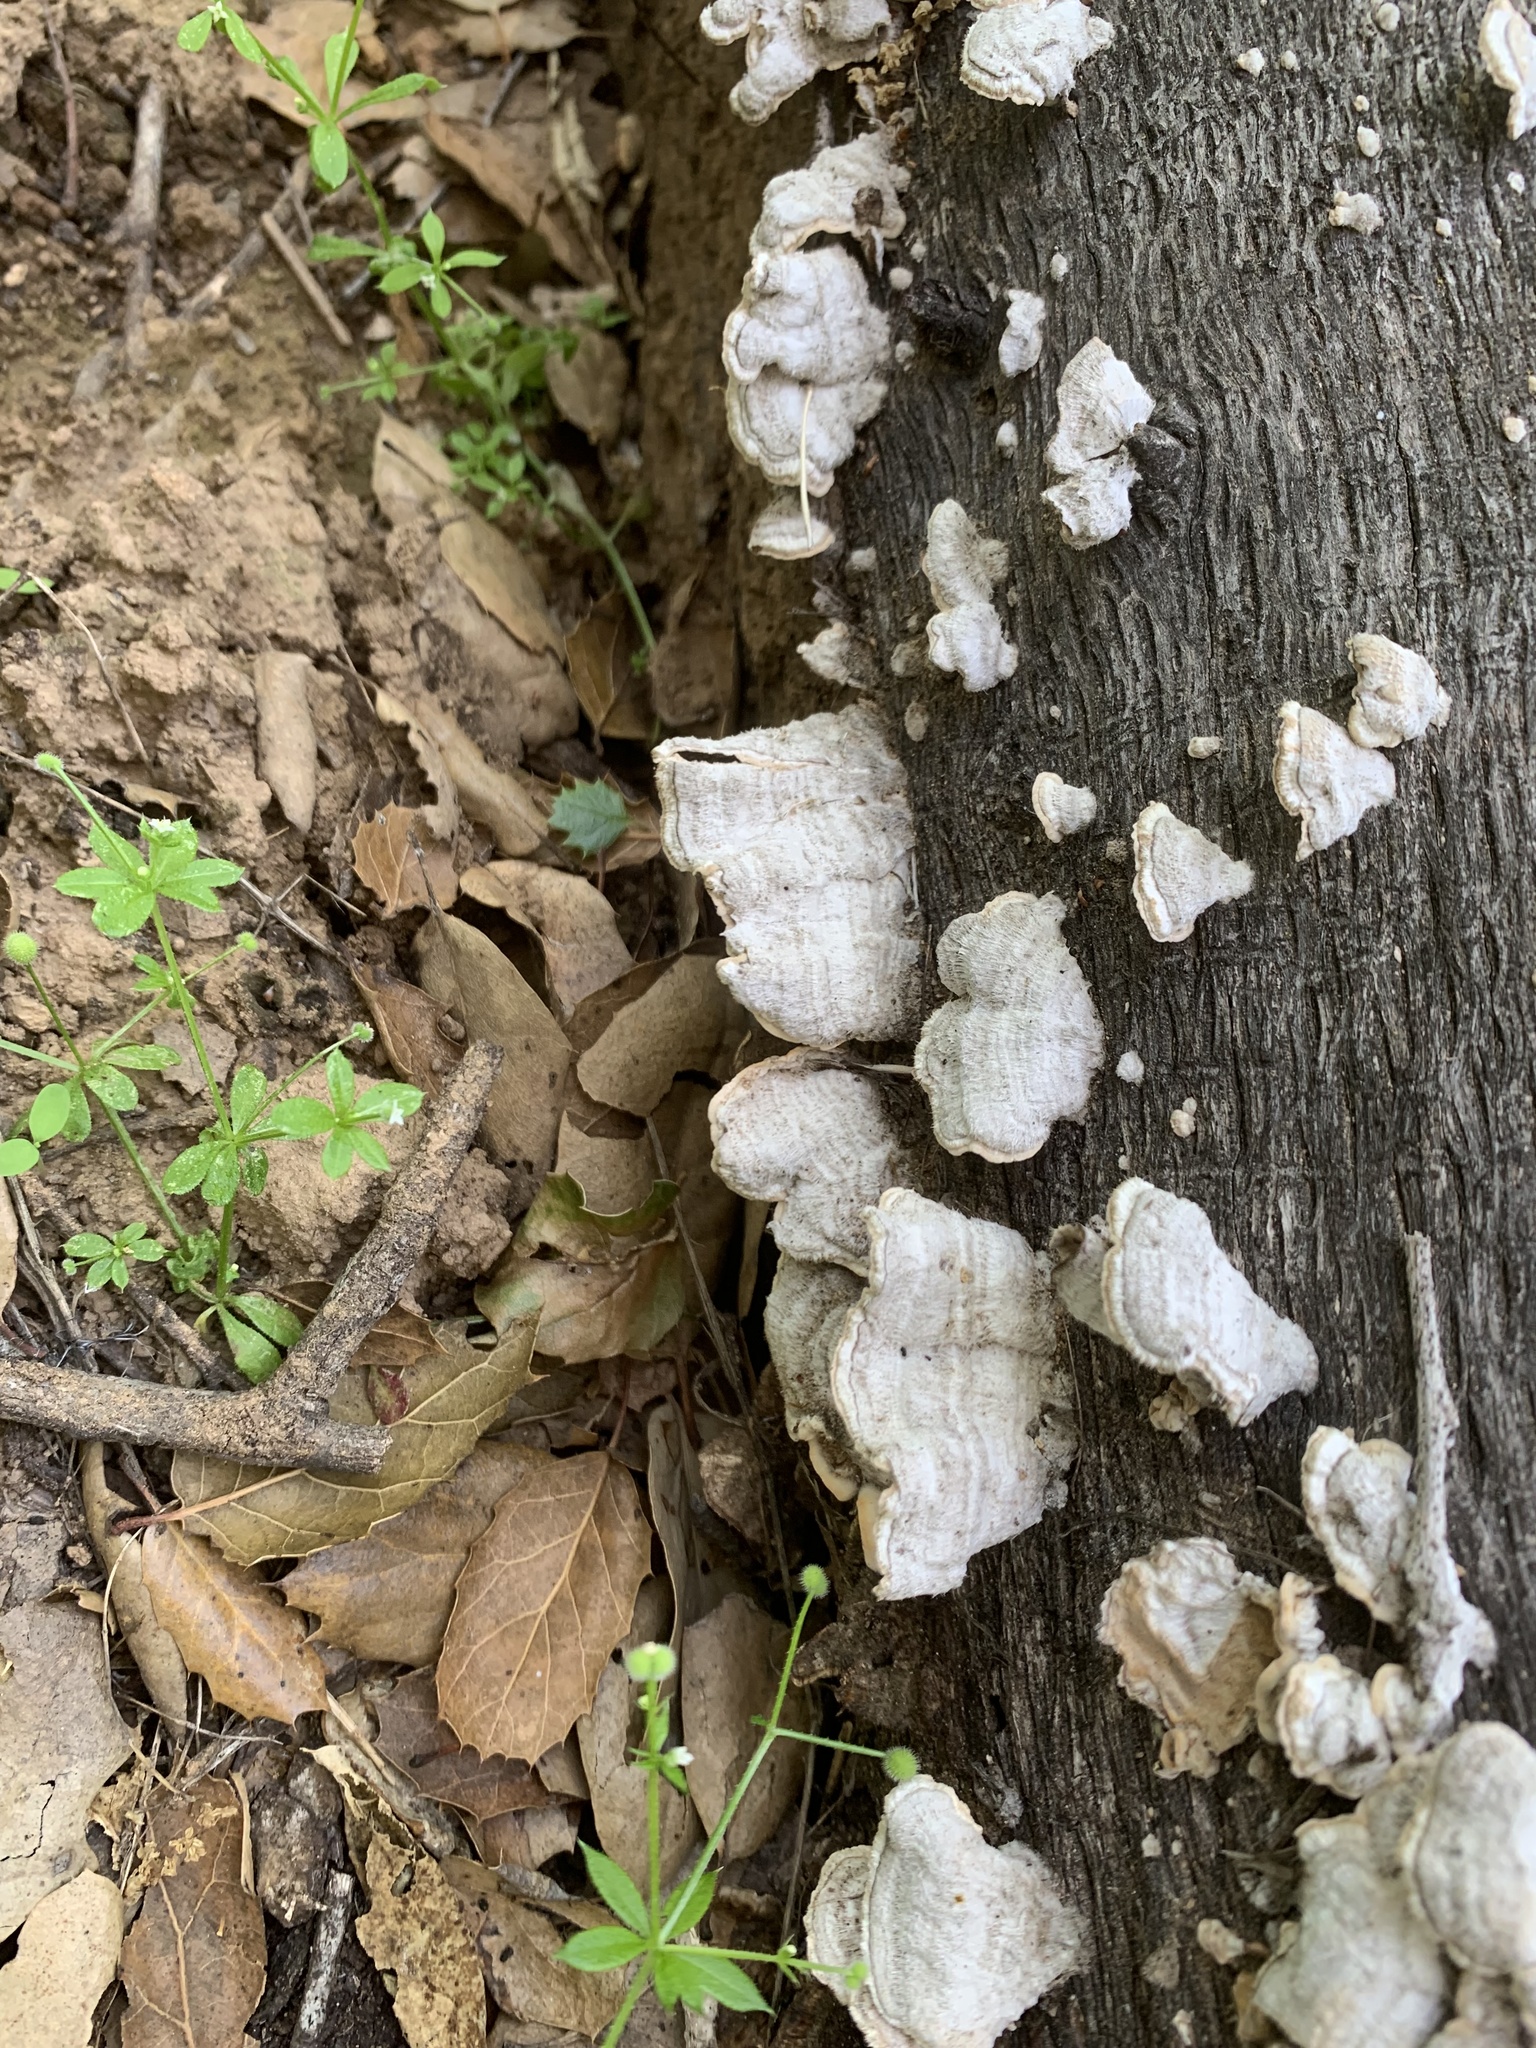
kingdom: Fungi
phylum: Basidiomycota
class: Agaricomycetes
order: Russulales
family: Stereaceae
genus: Stereum
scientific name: Stereum hirsutum
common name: Hairy curtain crust
